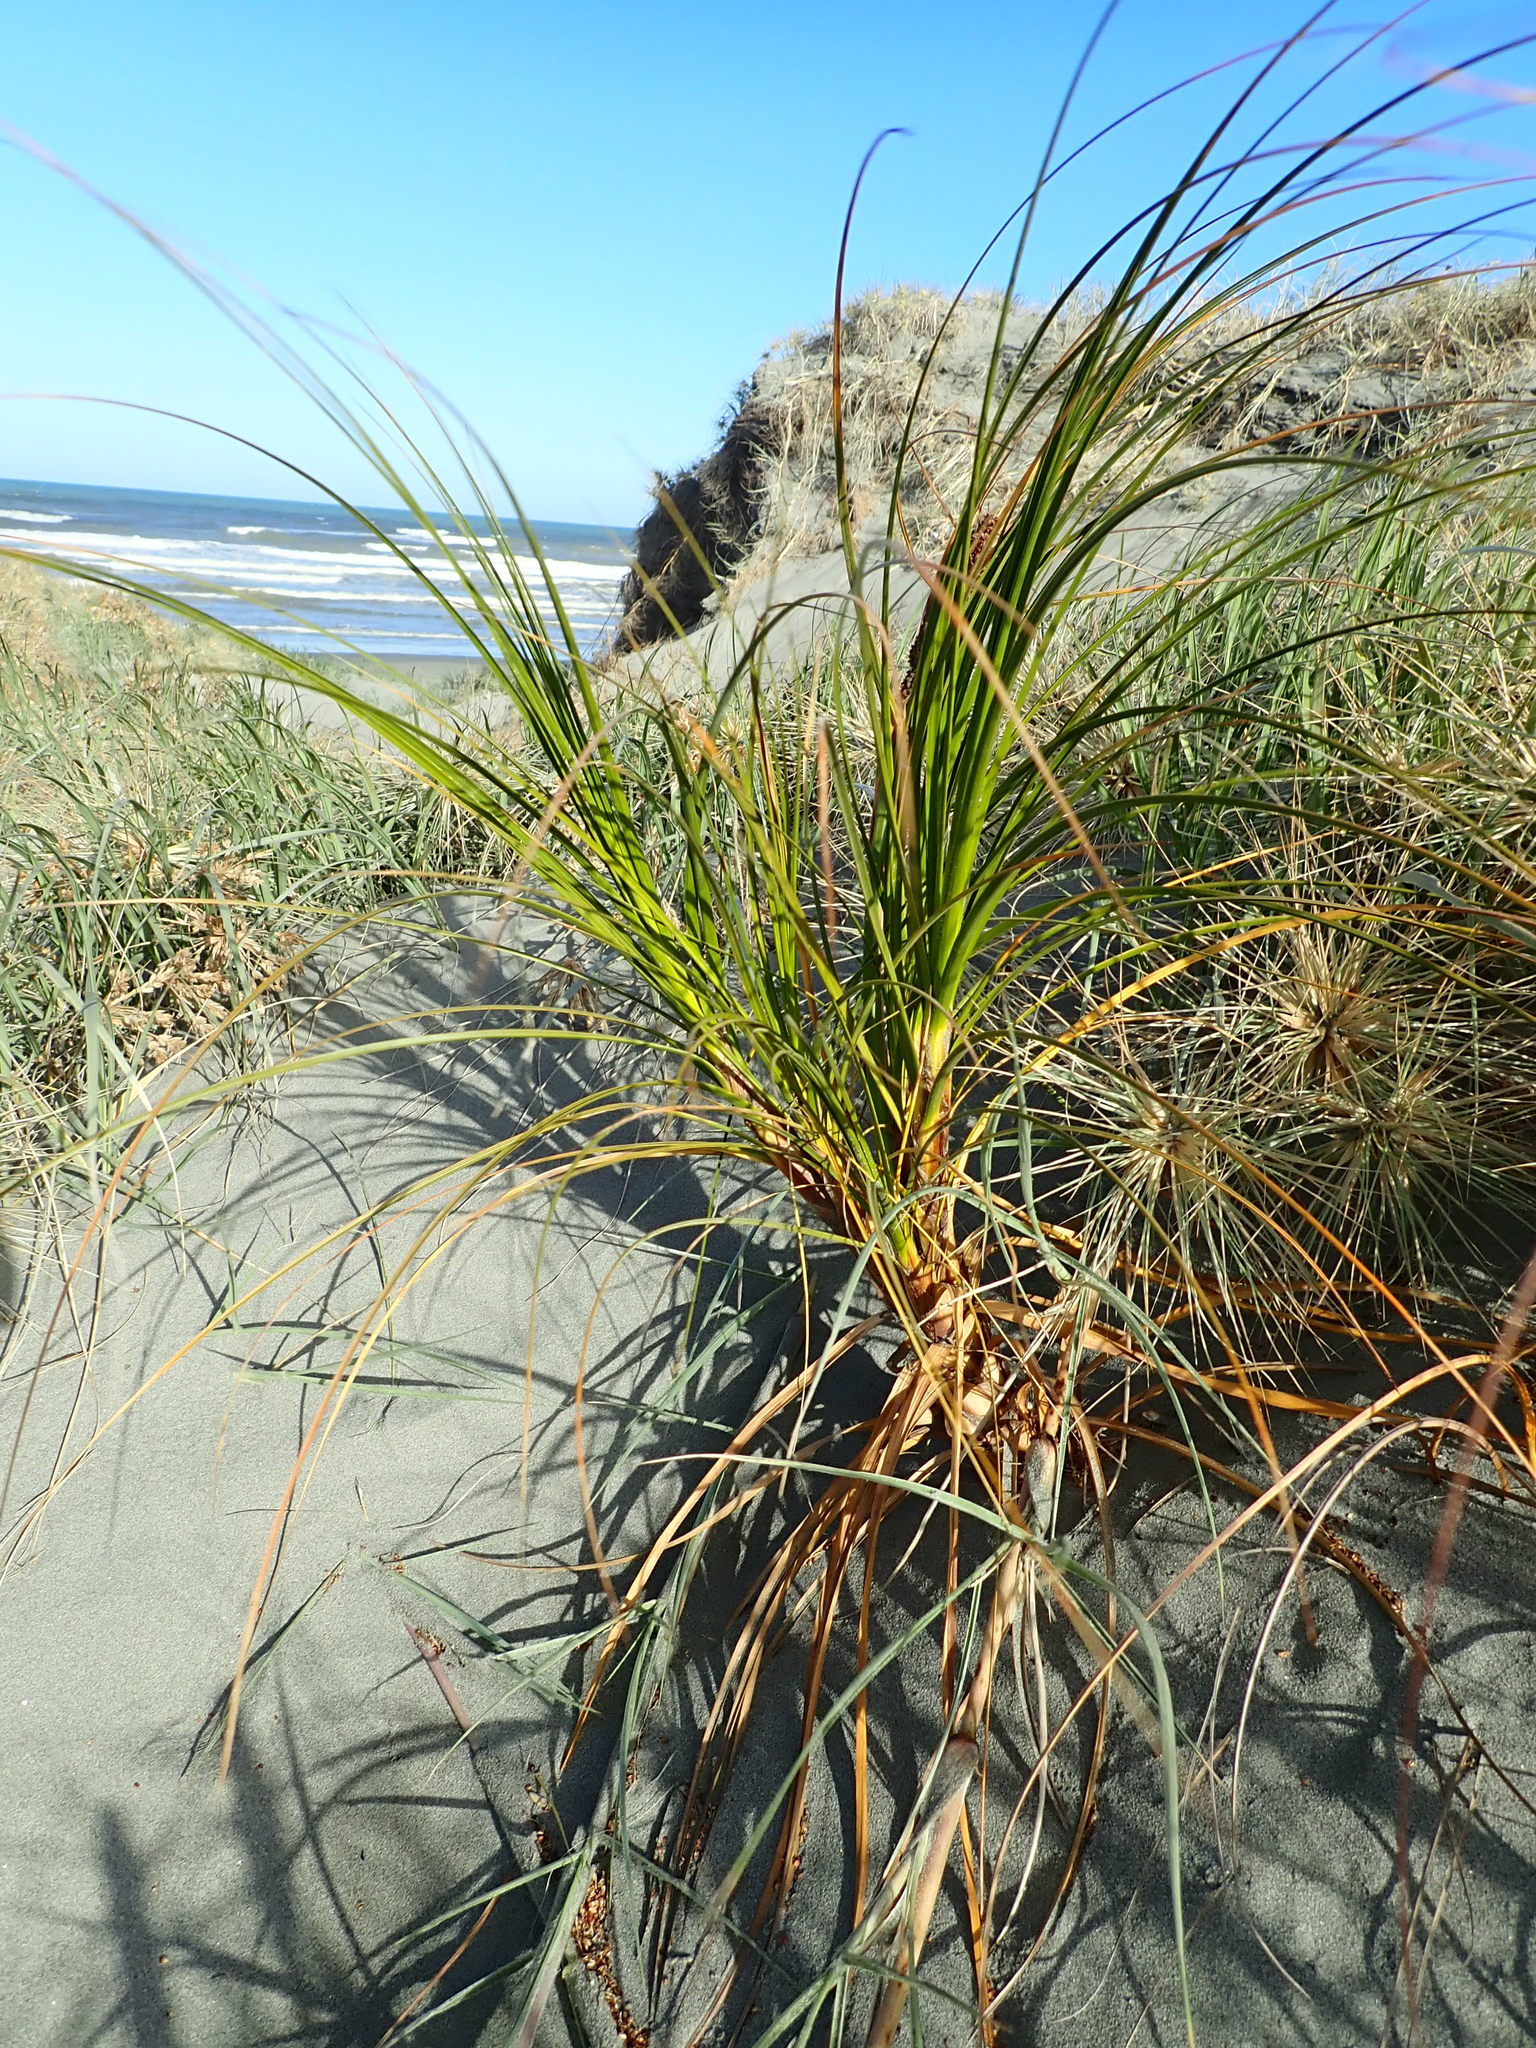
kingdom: Plantae
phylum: Tracheophyta
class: Liliopsida
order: Poales
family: Cyperaceae
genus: Ficinia
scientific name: Ficinia spiralis
